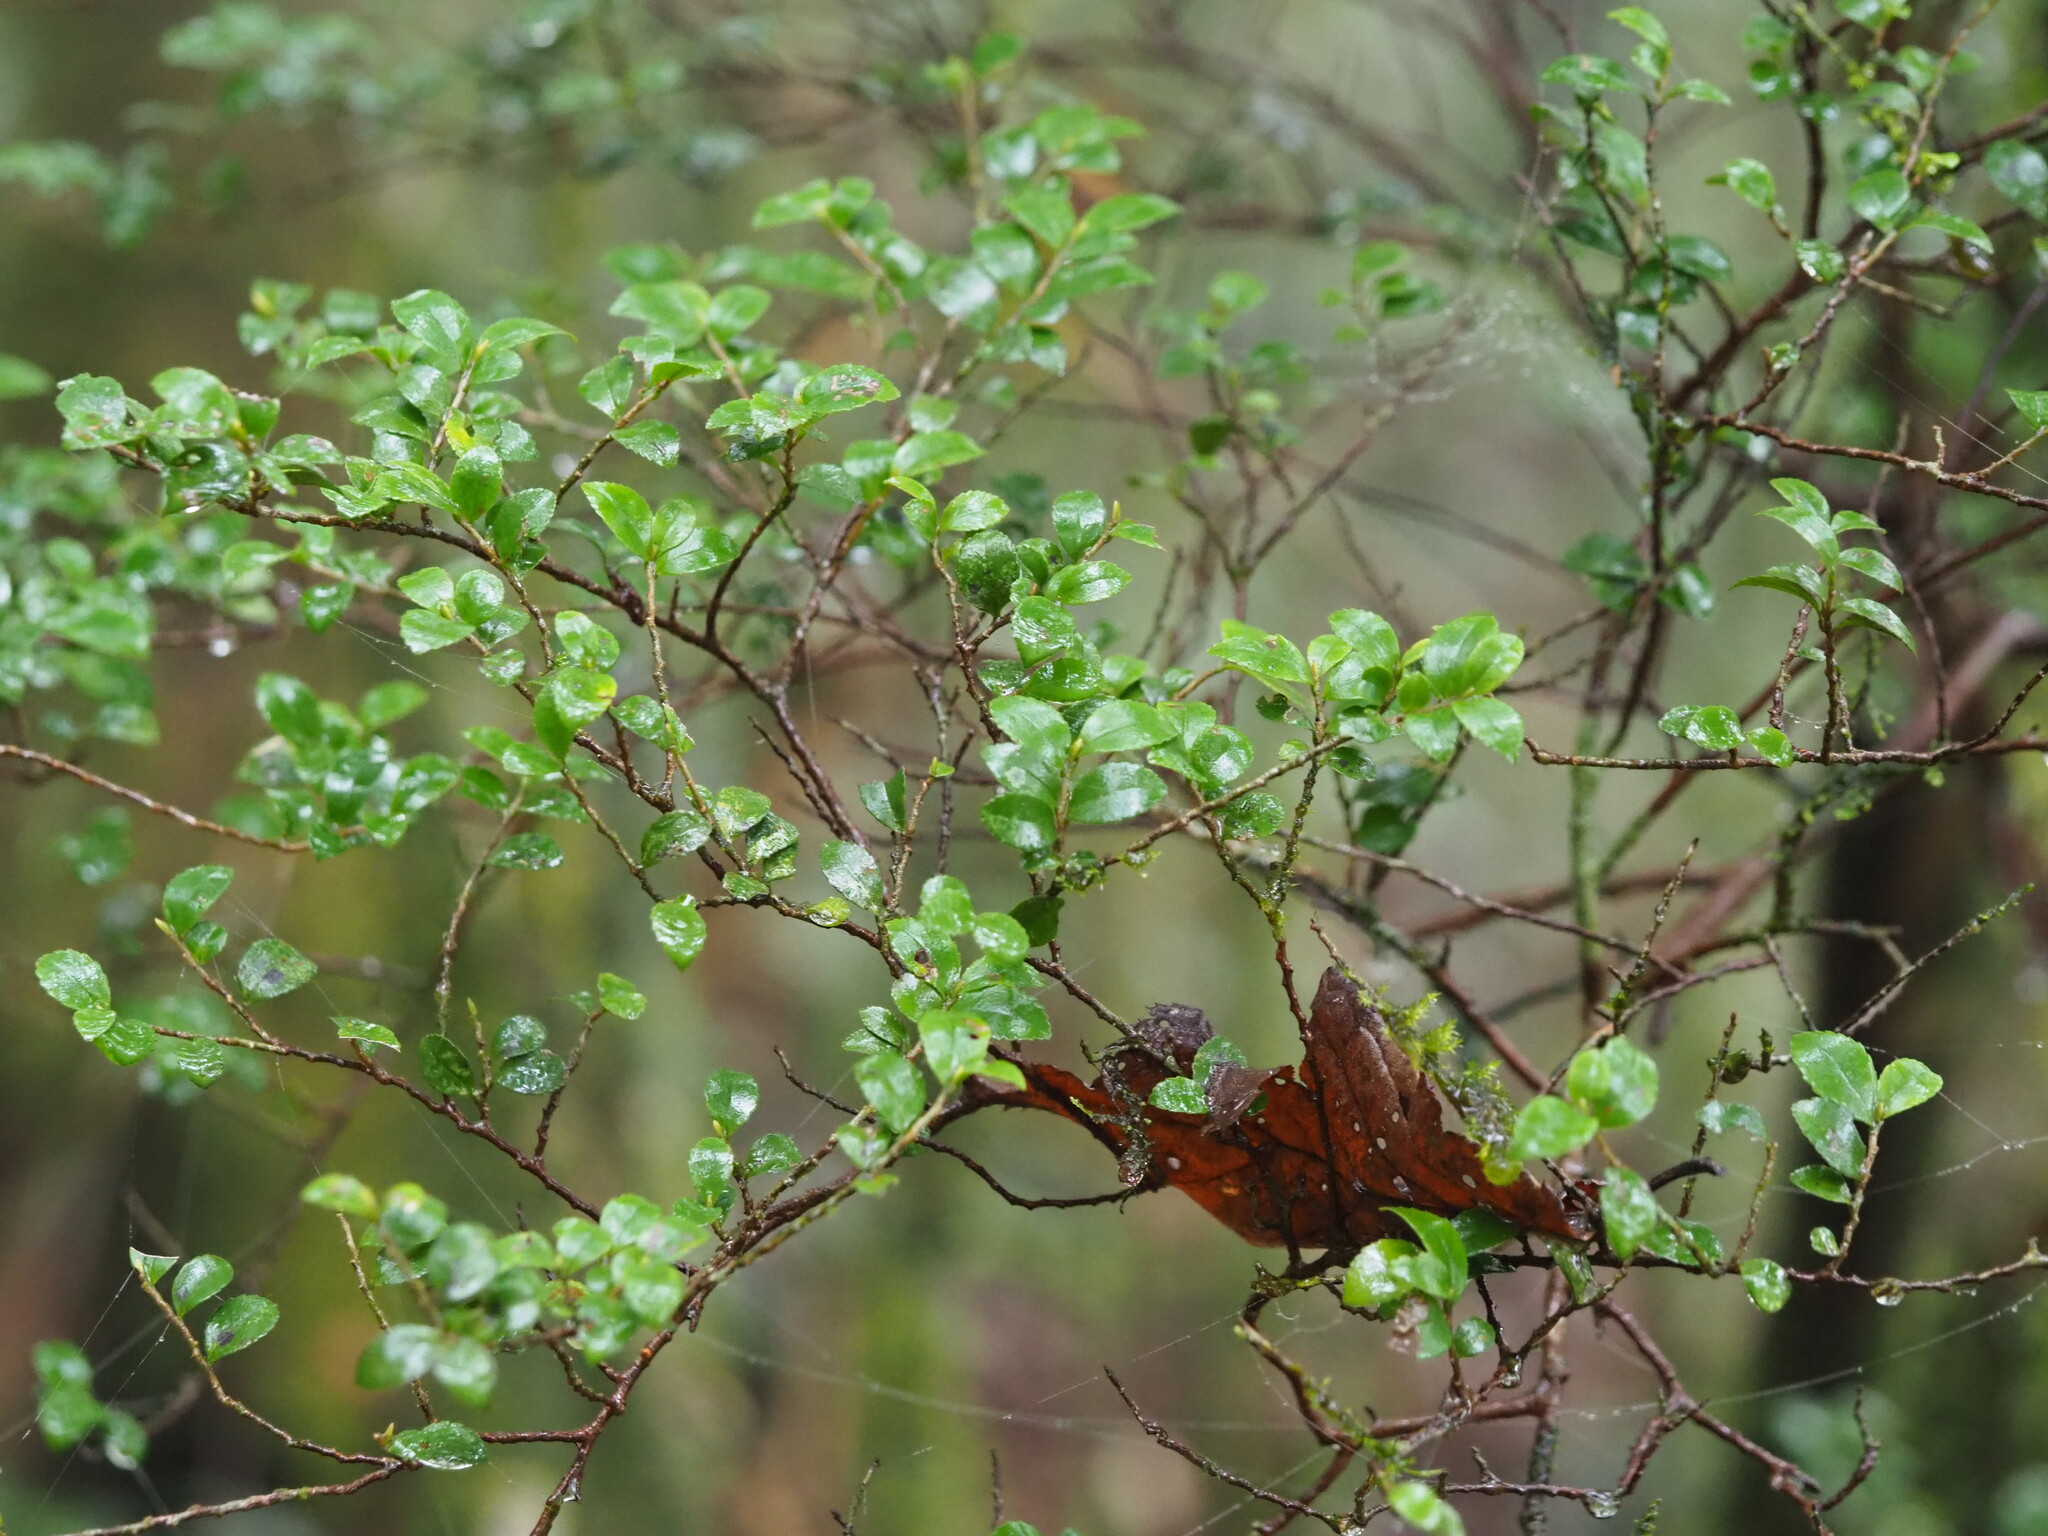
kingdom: Plantae
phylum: Tracheophyta
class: Magnoliopsida
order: Ericales
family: Pentaphylacaceae
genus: Eurya
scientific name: Eurya crenatifolia
